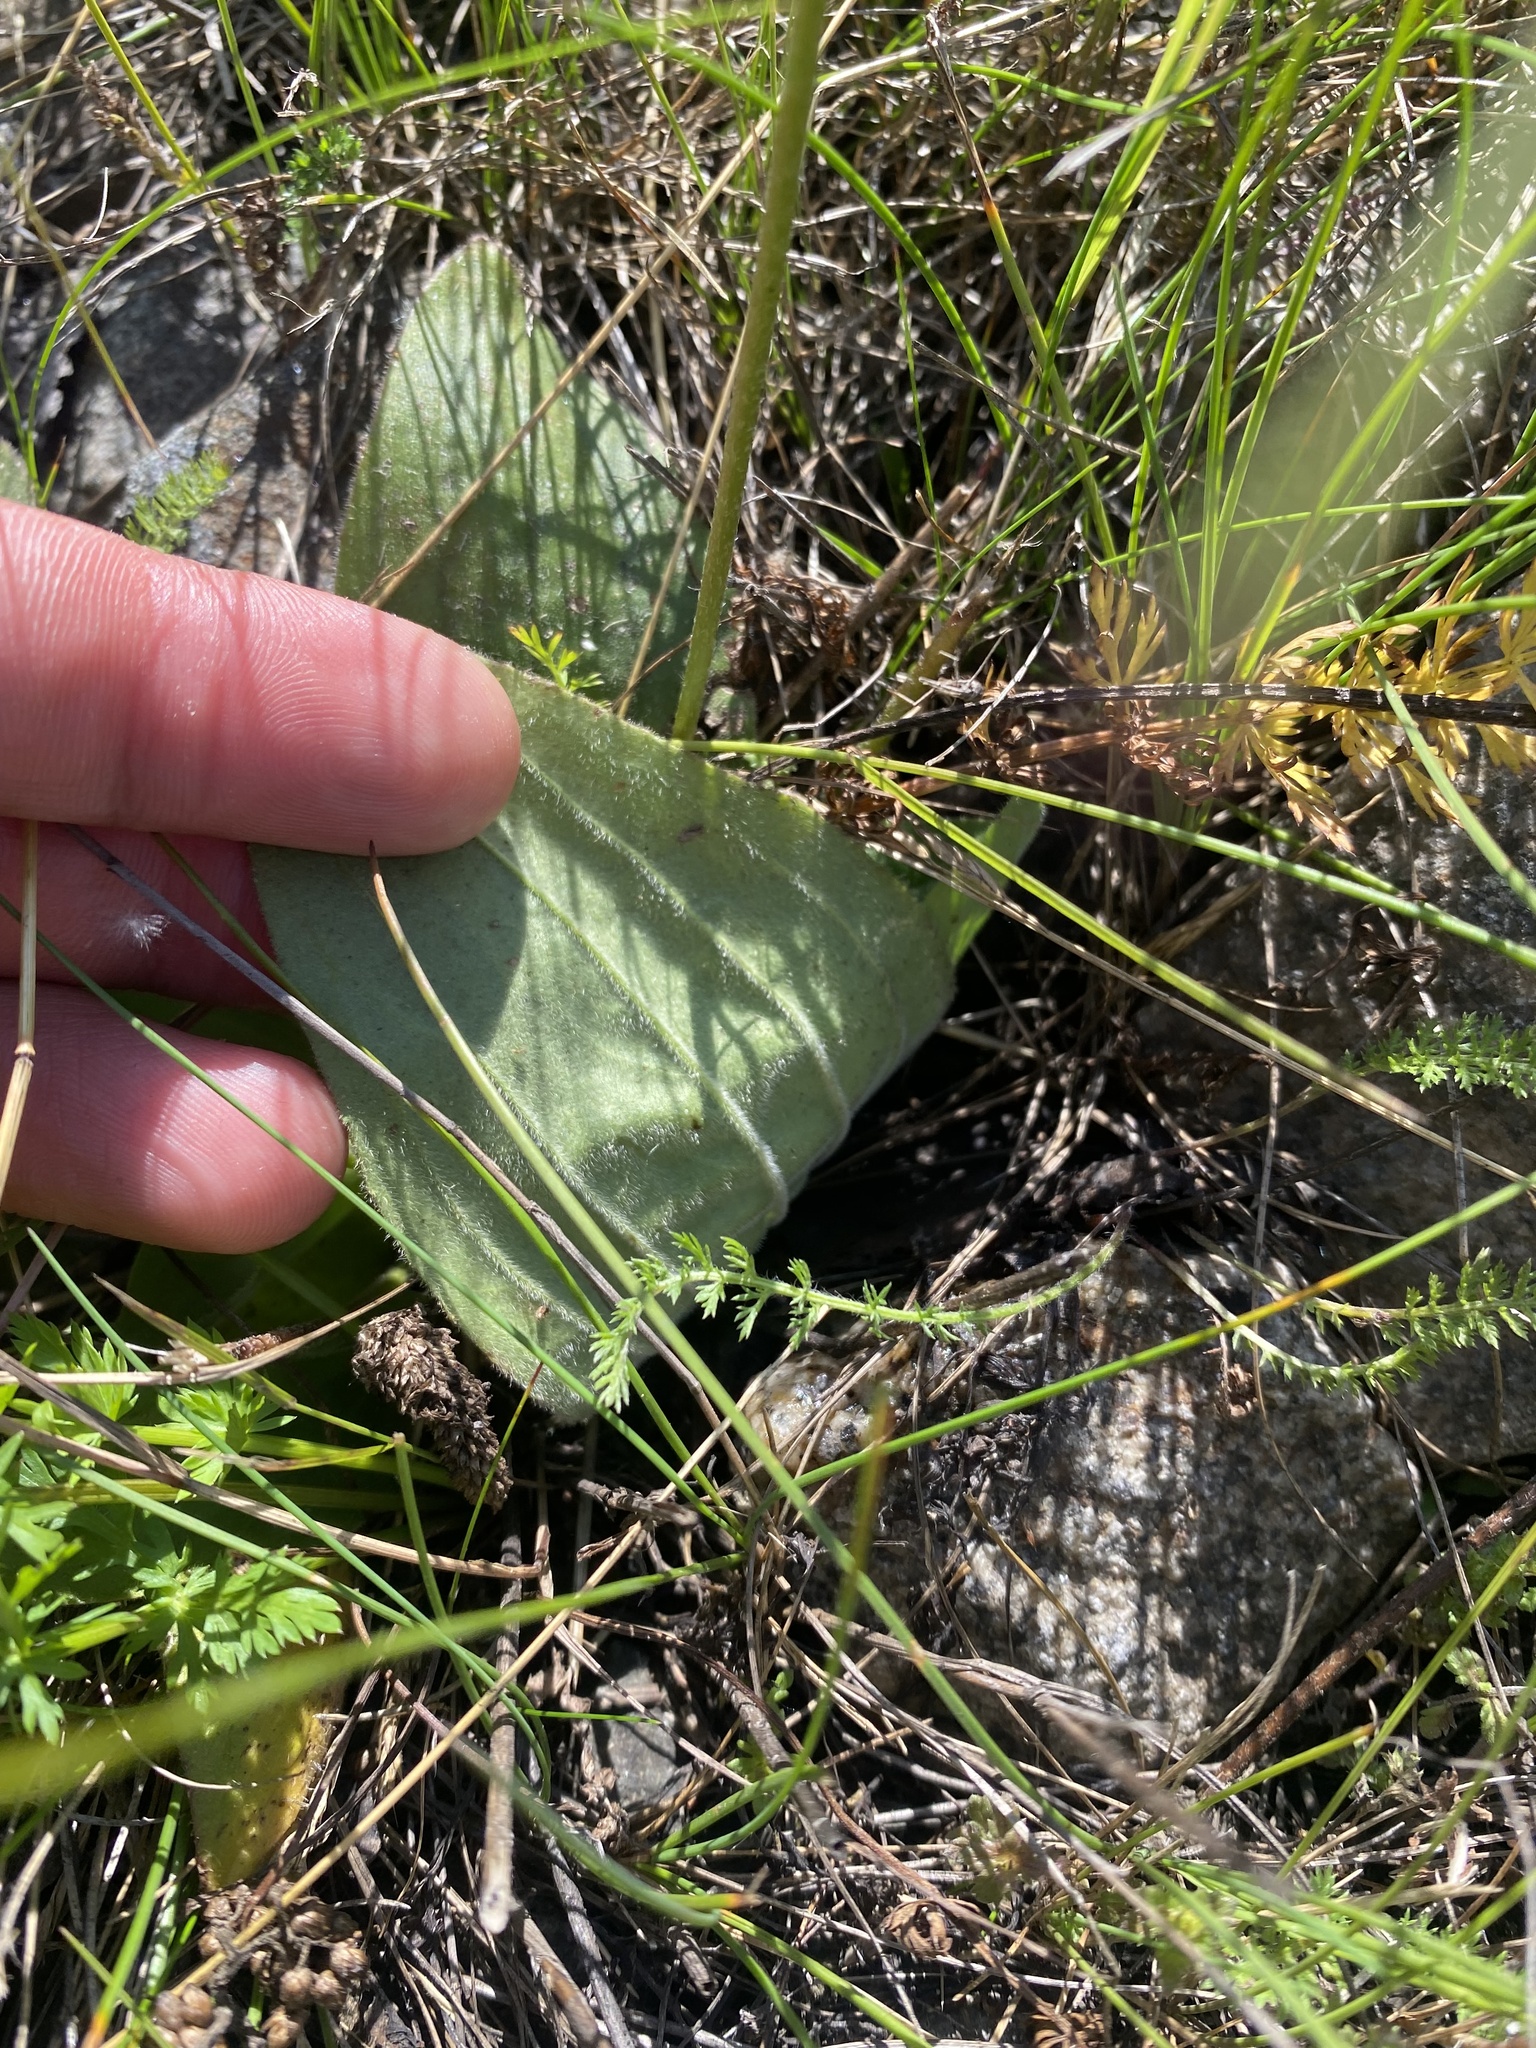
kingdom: Plantae
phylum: Tracheophyta
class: Magnoliopsida
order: Lamiales
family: Plantaginaceae
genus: Plantago
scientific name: Plantago media
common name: Hoary plantain
